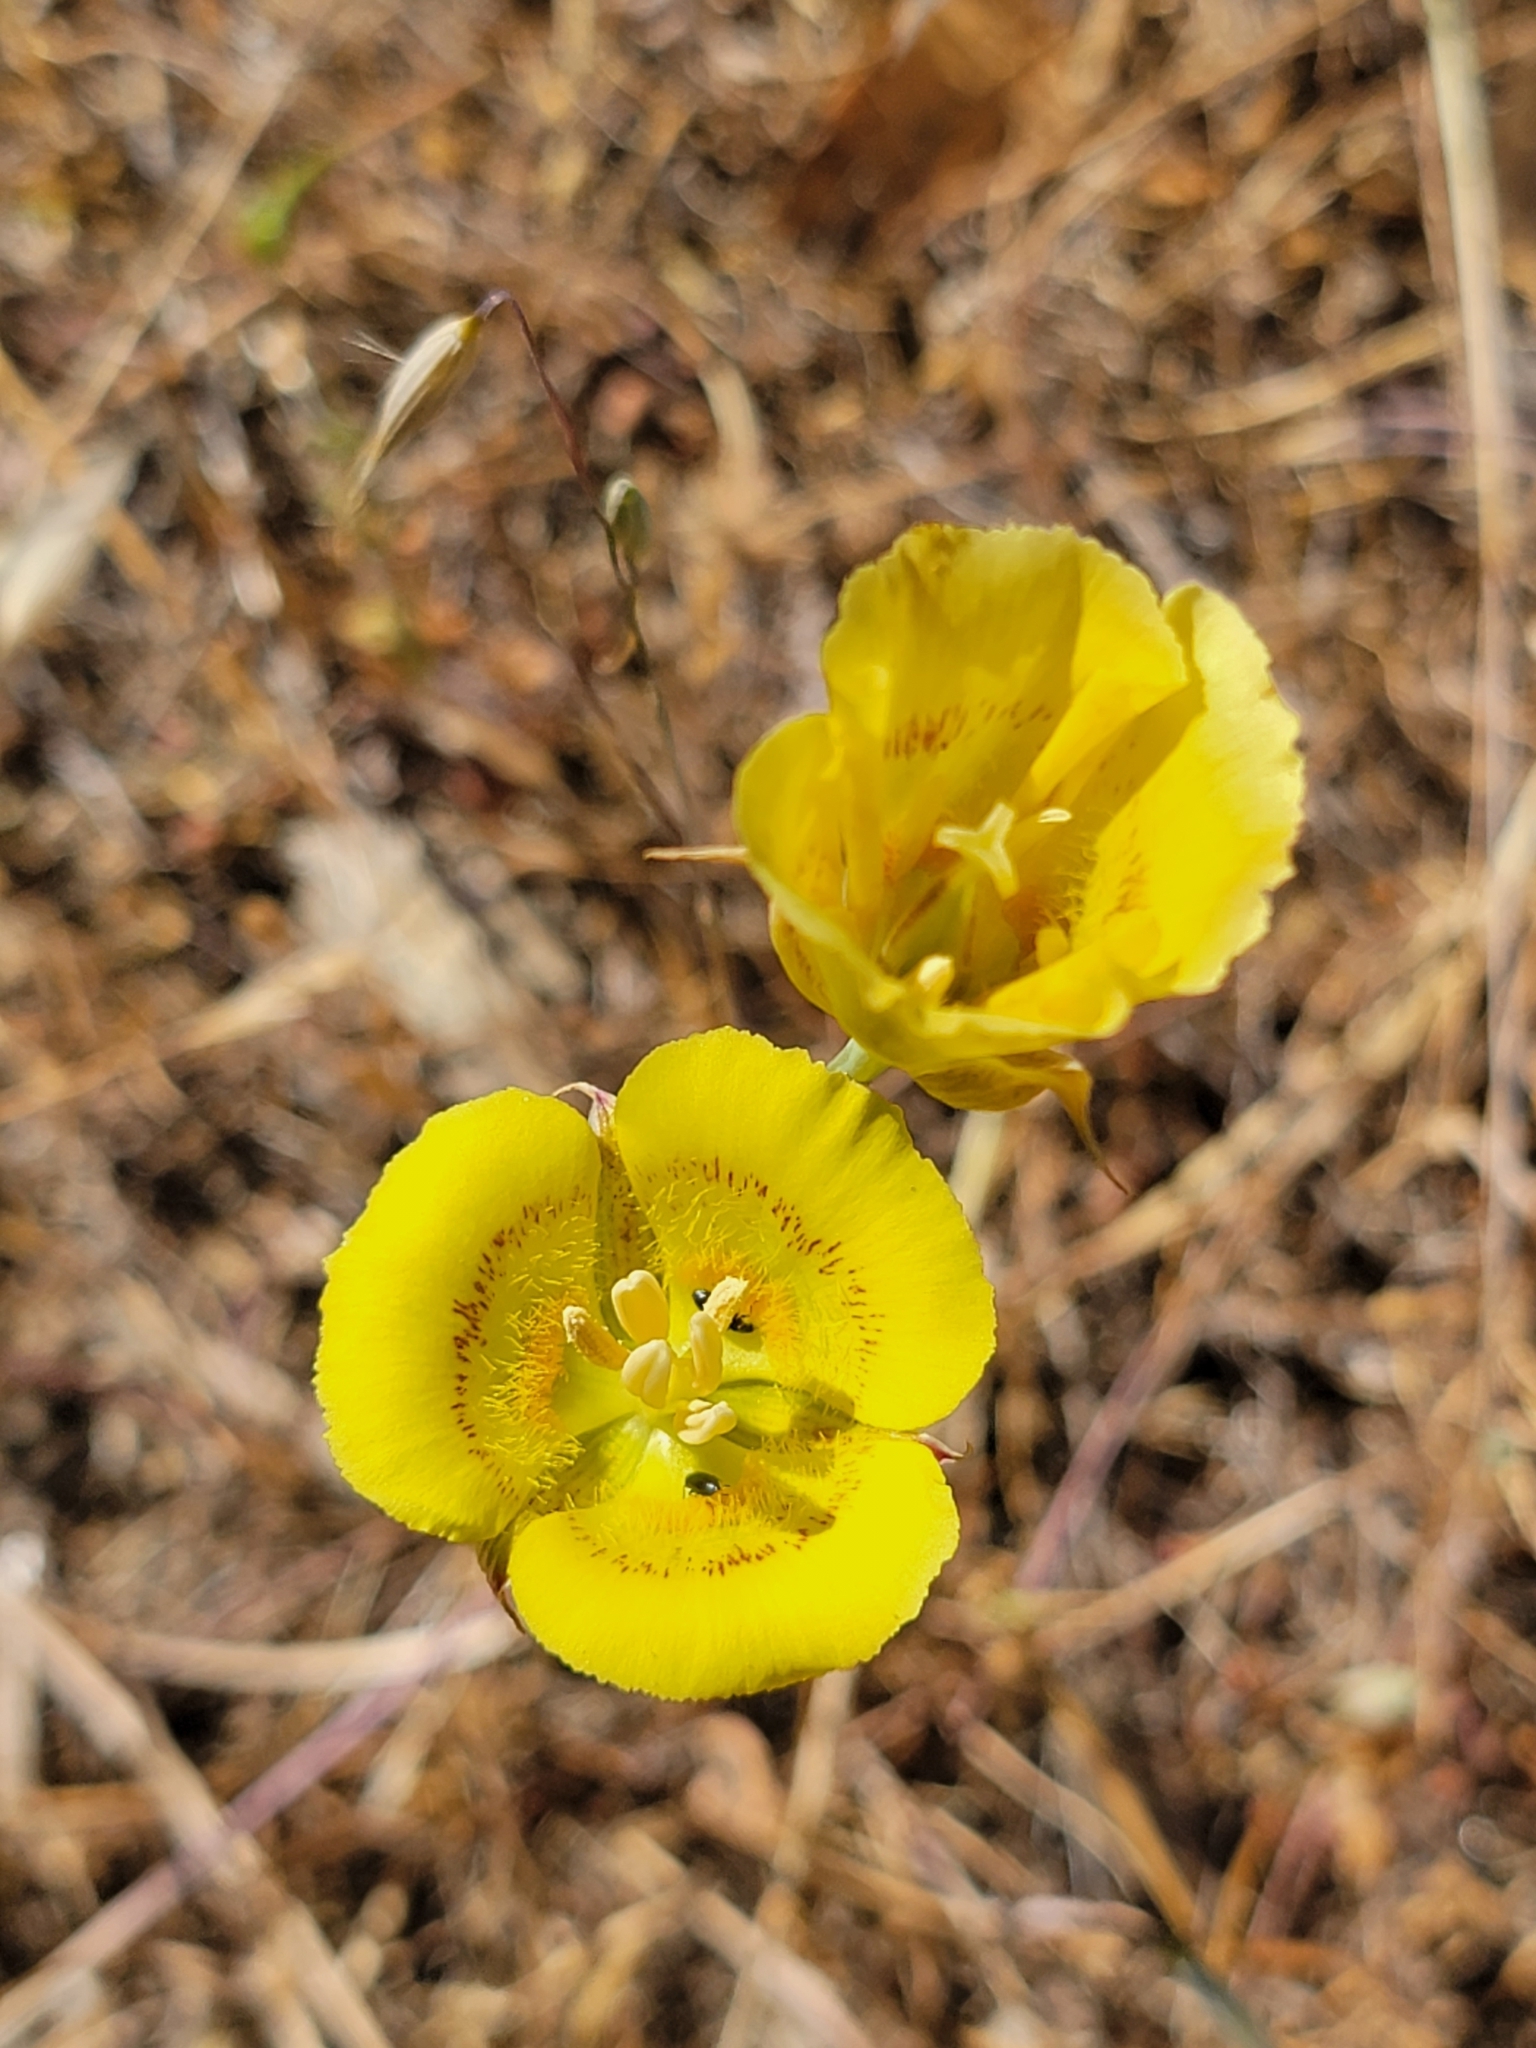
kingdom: Plantae
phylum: Tracheophyta
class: Liliopsida
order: Liliales
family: Liliaceae
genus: Calochortus
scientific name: Calochortus luteus
